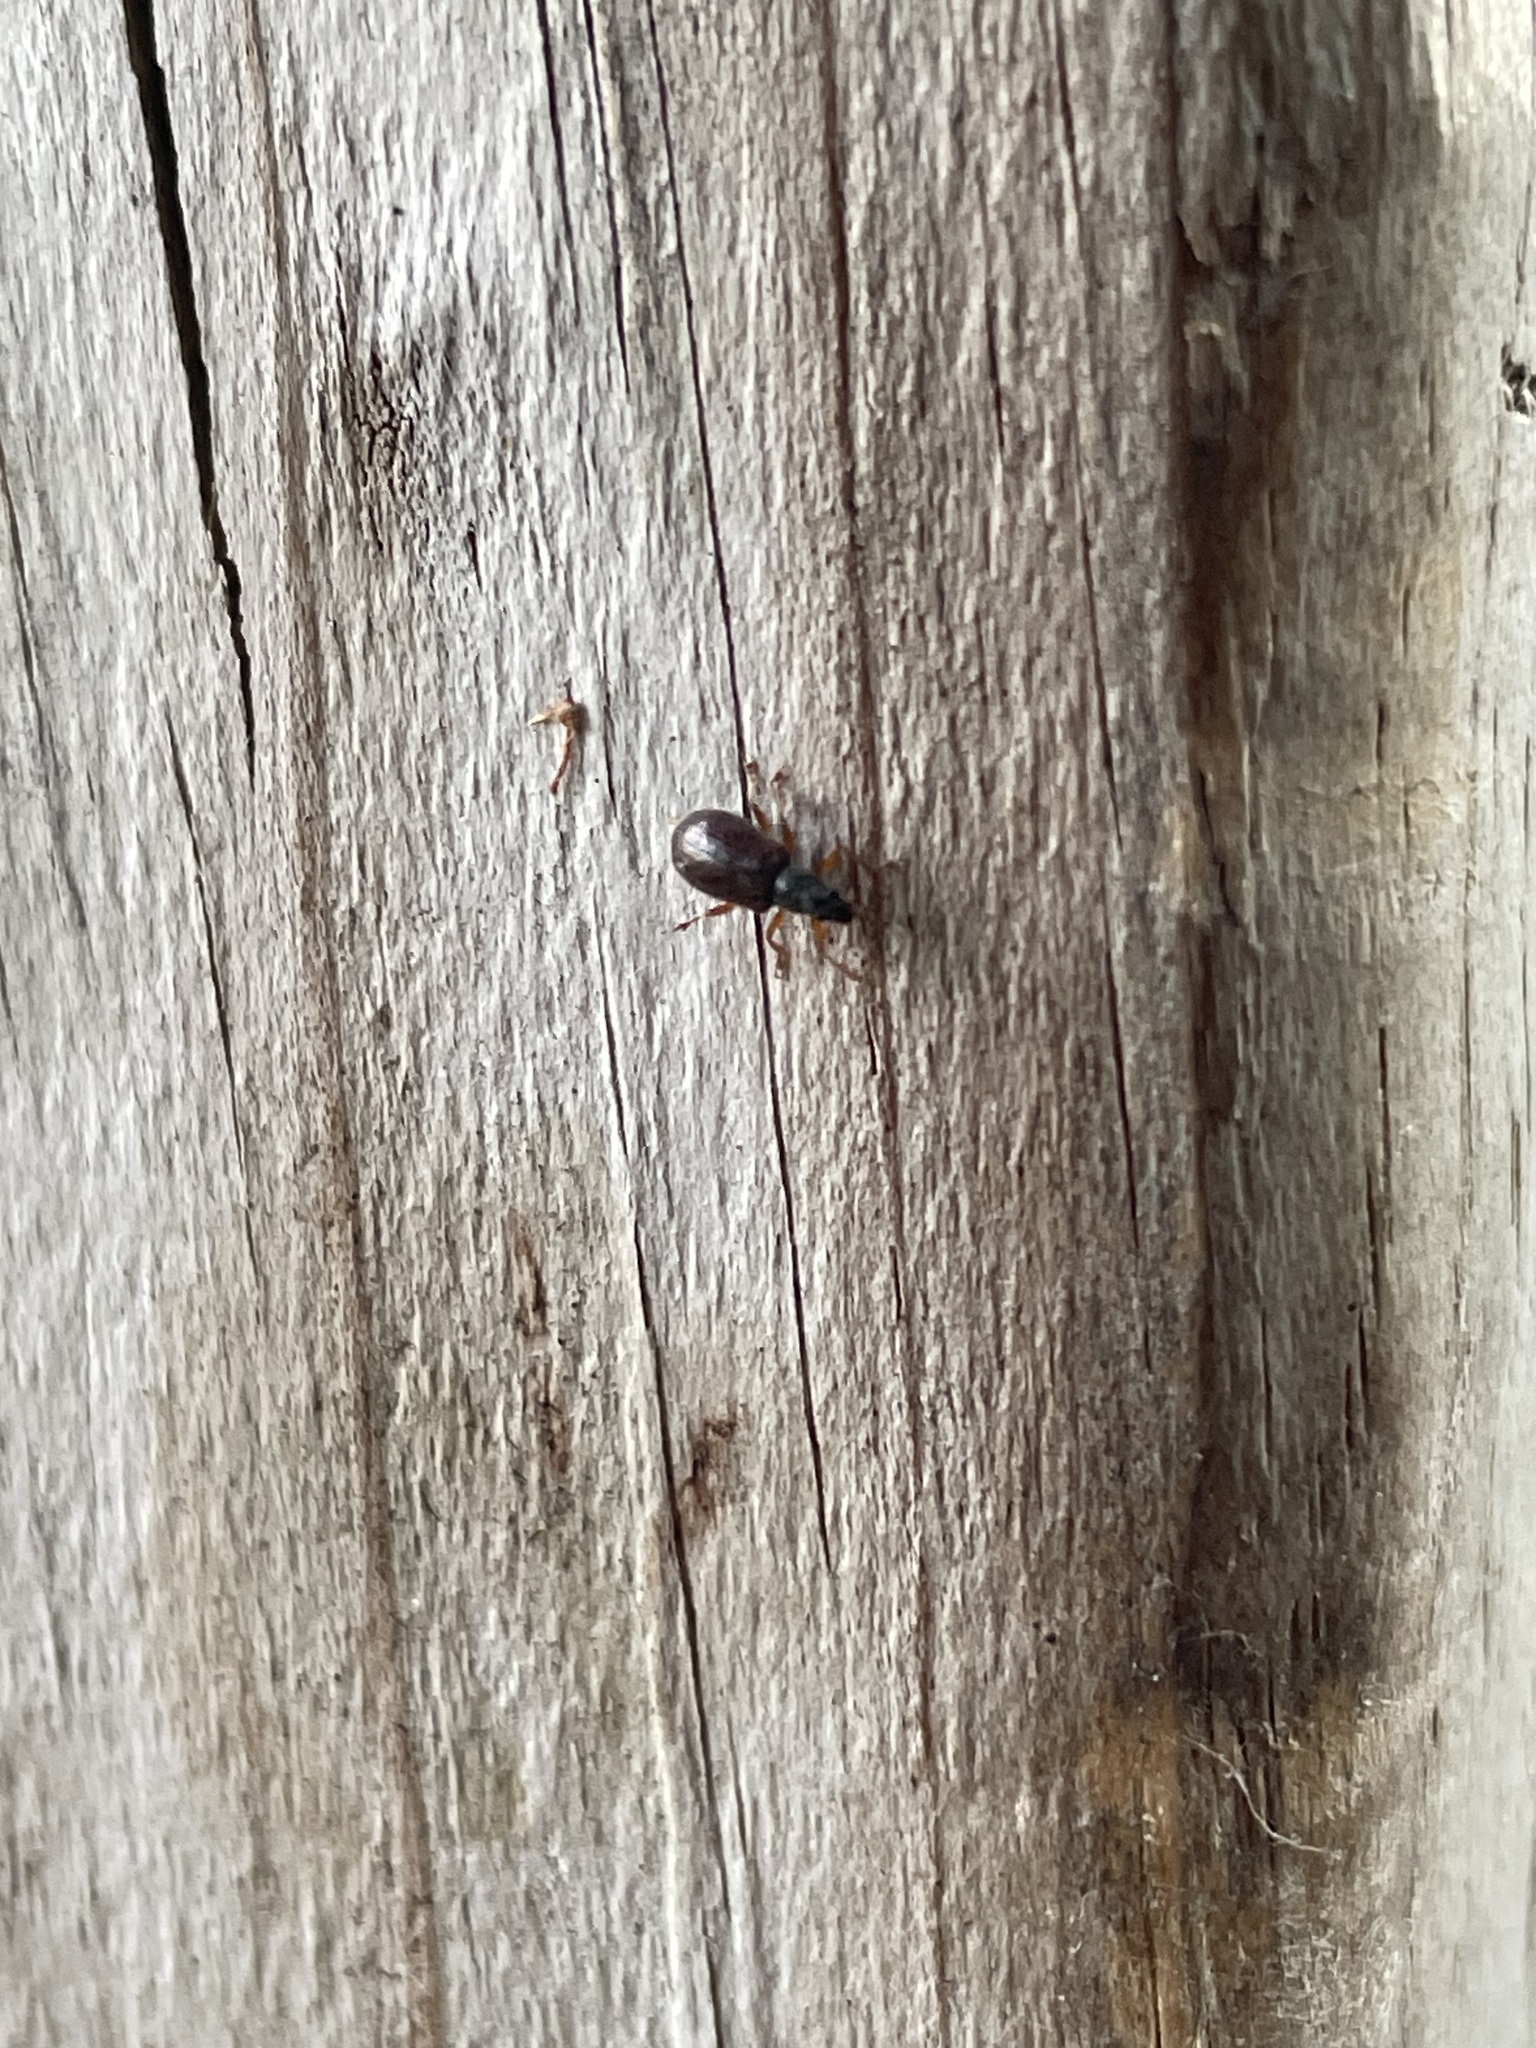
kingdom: Animalia
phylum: Arthropoda
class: Insecta
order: Coleoptera
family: Curculionidae
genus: Phyllobius
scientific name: Phyllobius oblongus
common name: Brown leaf weevil
